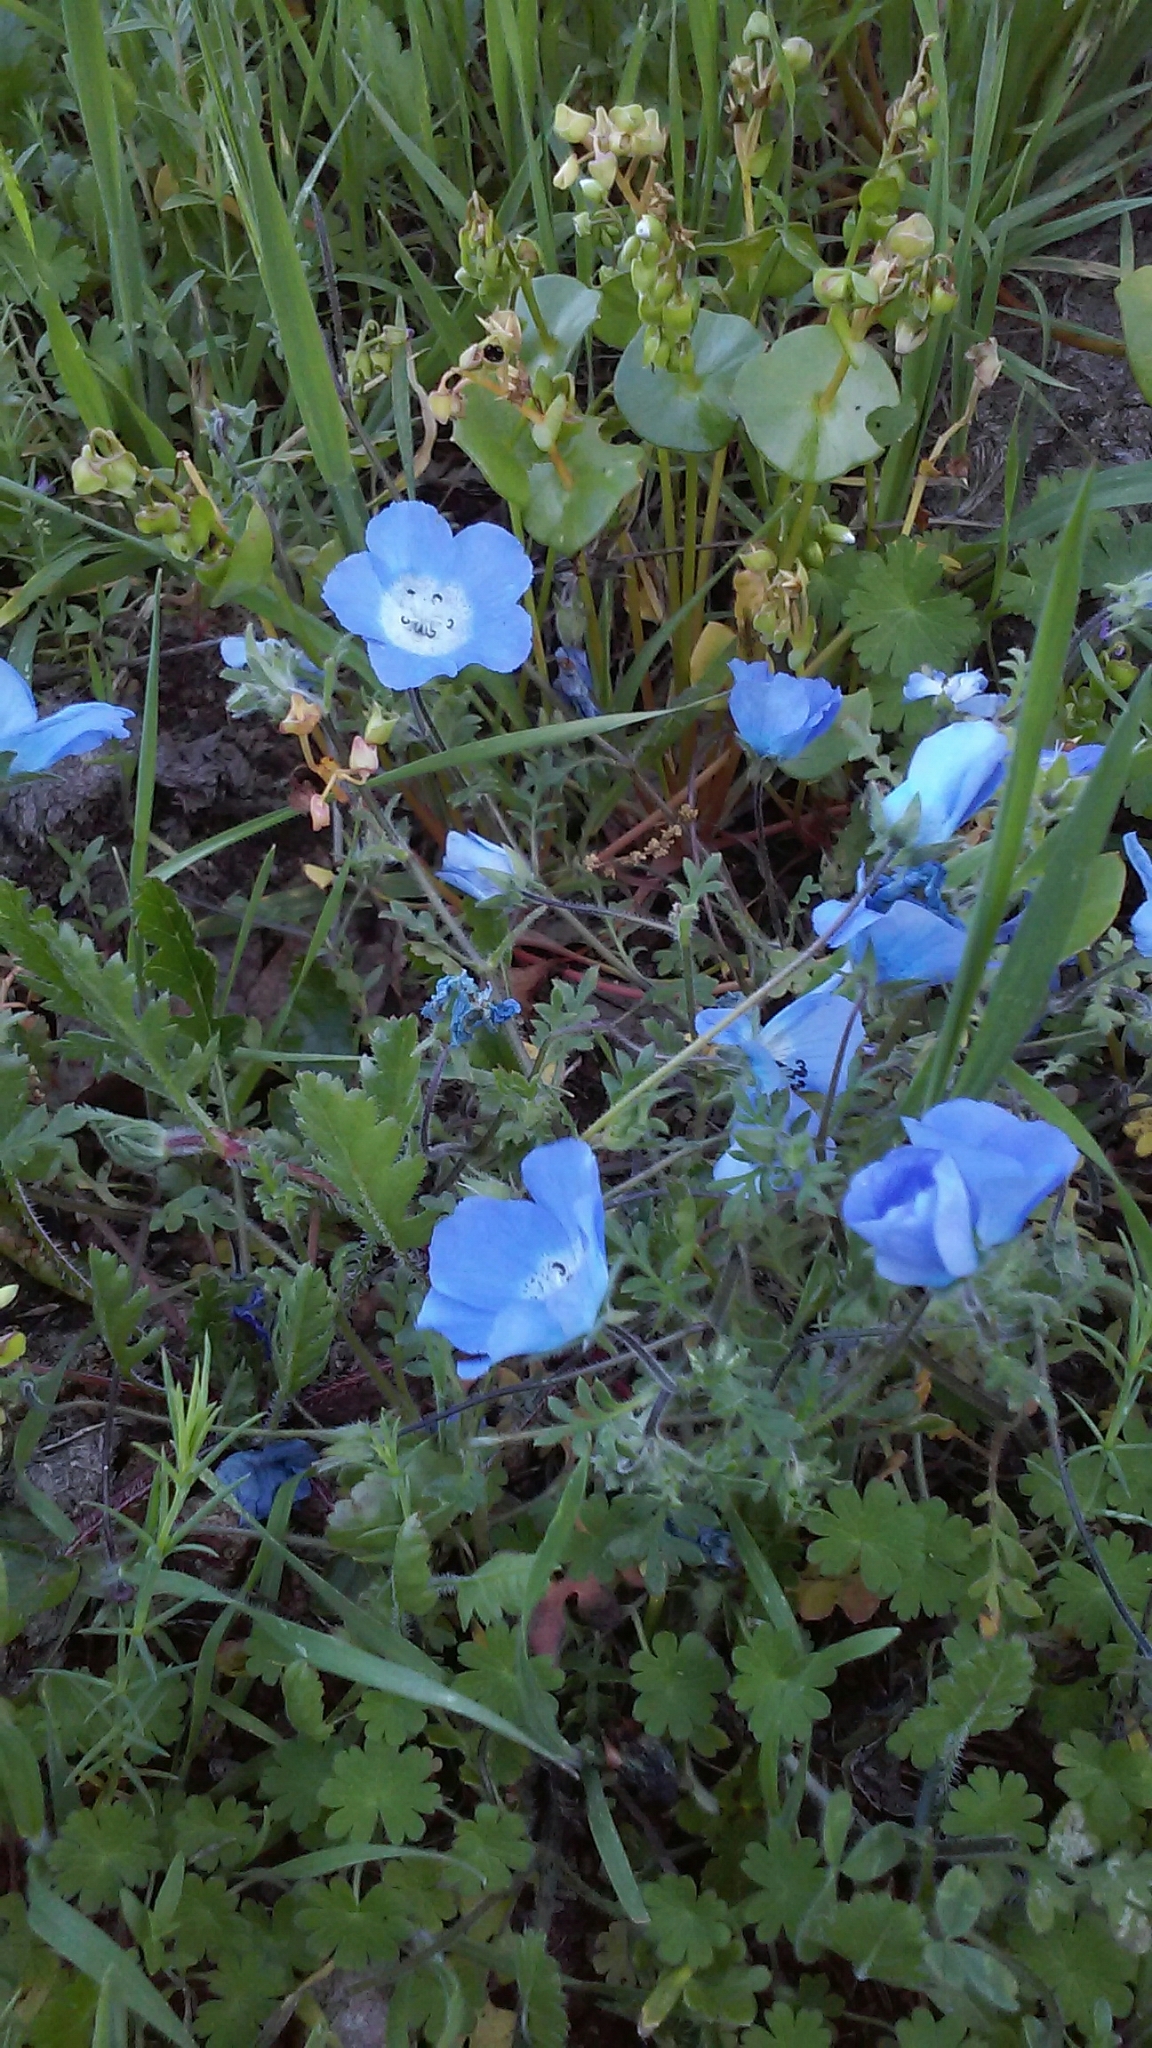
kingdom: Plantae
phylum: Tracheophyta
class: Magnoliopsida
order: Boraginales
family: Hydrophyllaceae
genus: Nemophila
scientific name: Nemophila menziesii
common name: Baby's-blue-eyes
